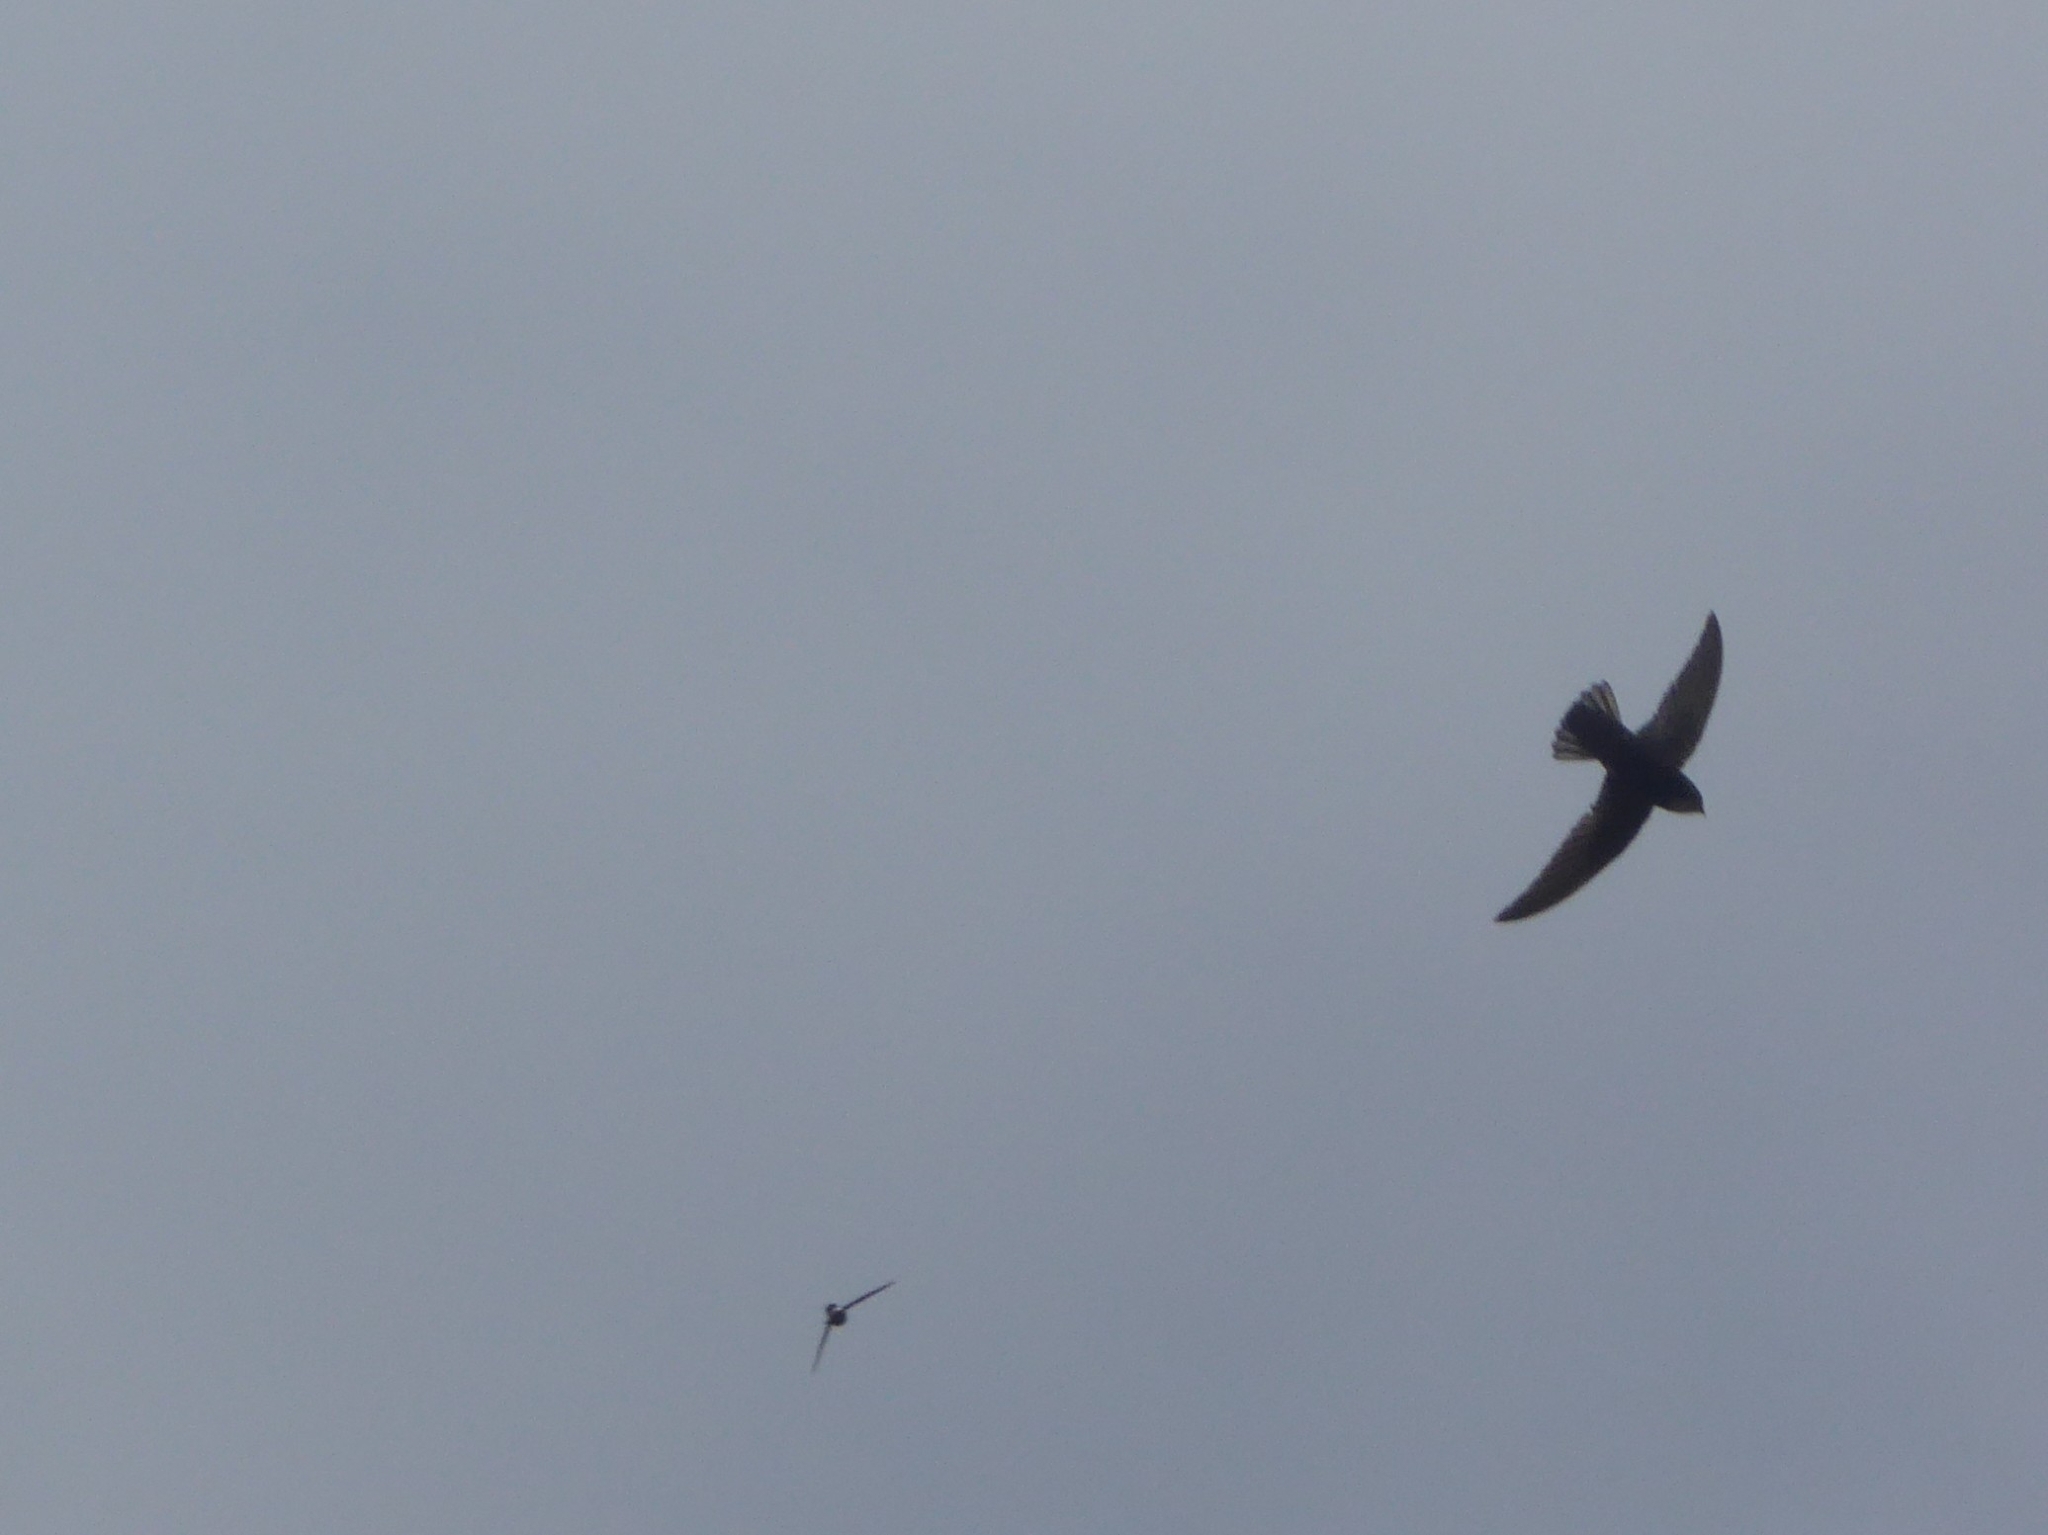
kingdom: Animalia
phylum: Chordata
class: Aves
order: Apodiformes
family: Apodidae
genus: Apus
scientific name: Apus affinis
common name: Little swift
